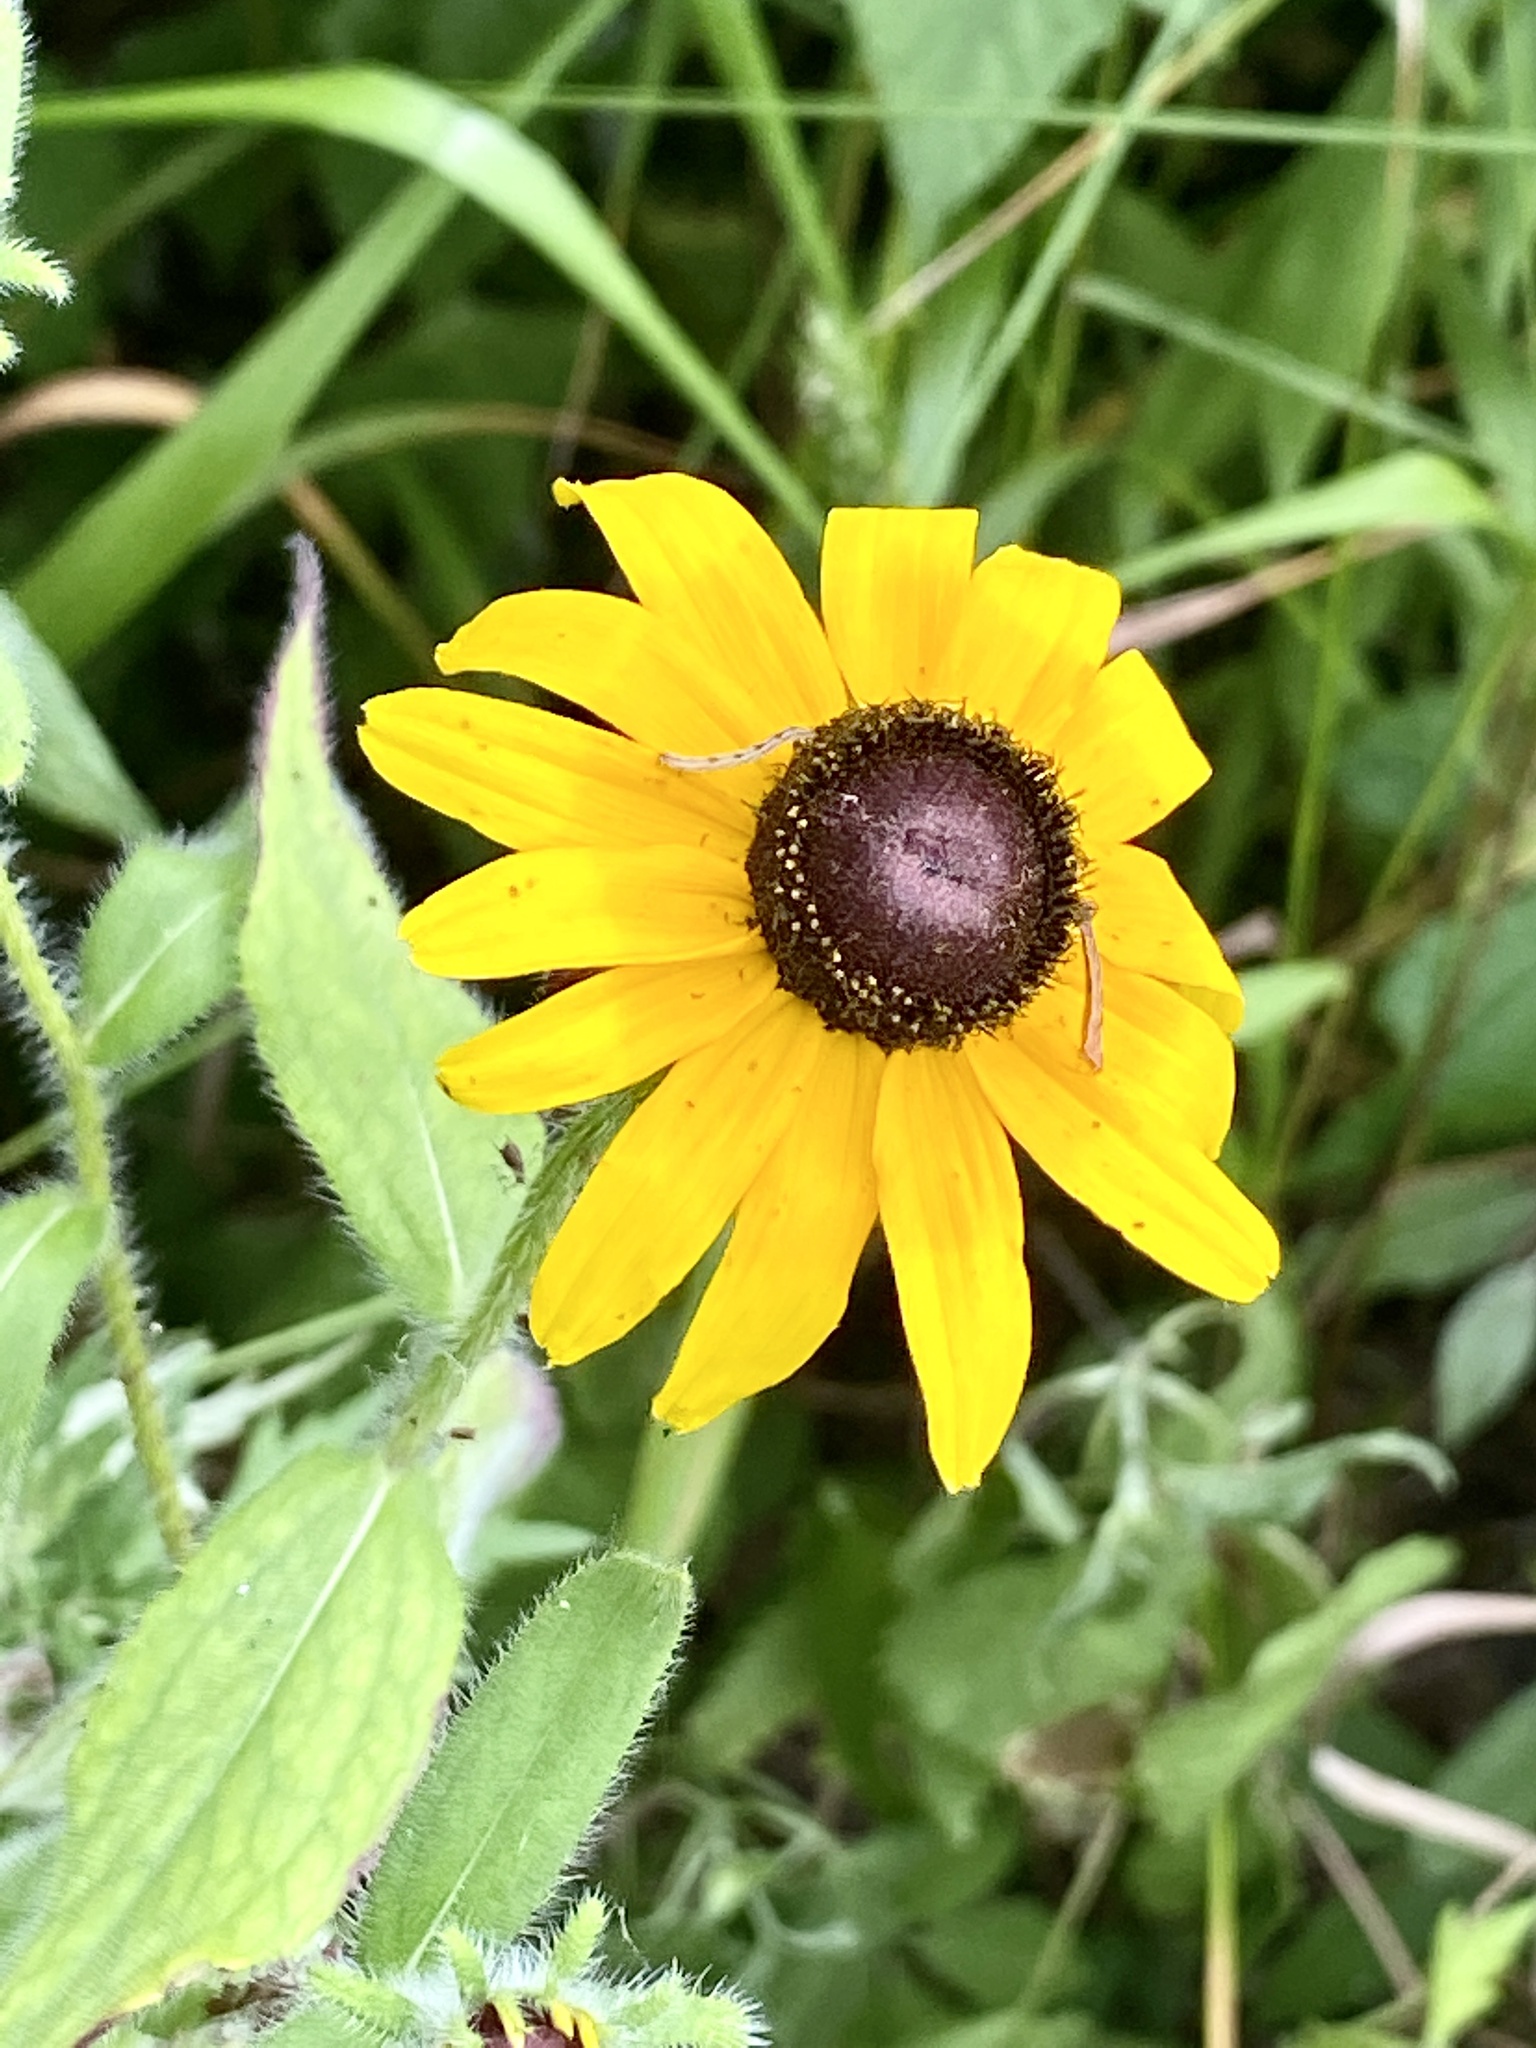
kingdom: Plantae
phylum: Tracheophyta
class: Magnoliopsida
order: Asterales
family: Asteraceae
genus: Rudbeckia
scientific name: Rudbeckia hirta
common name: Black-eyed-susan
